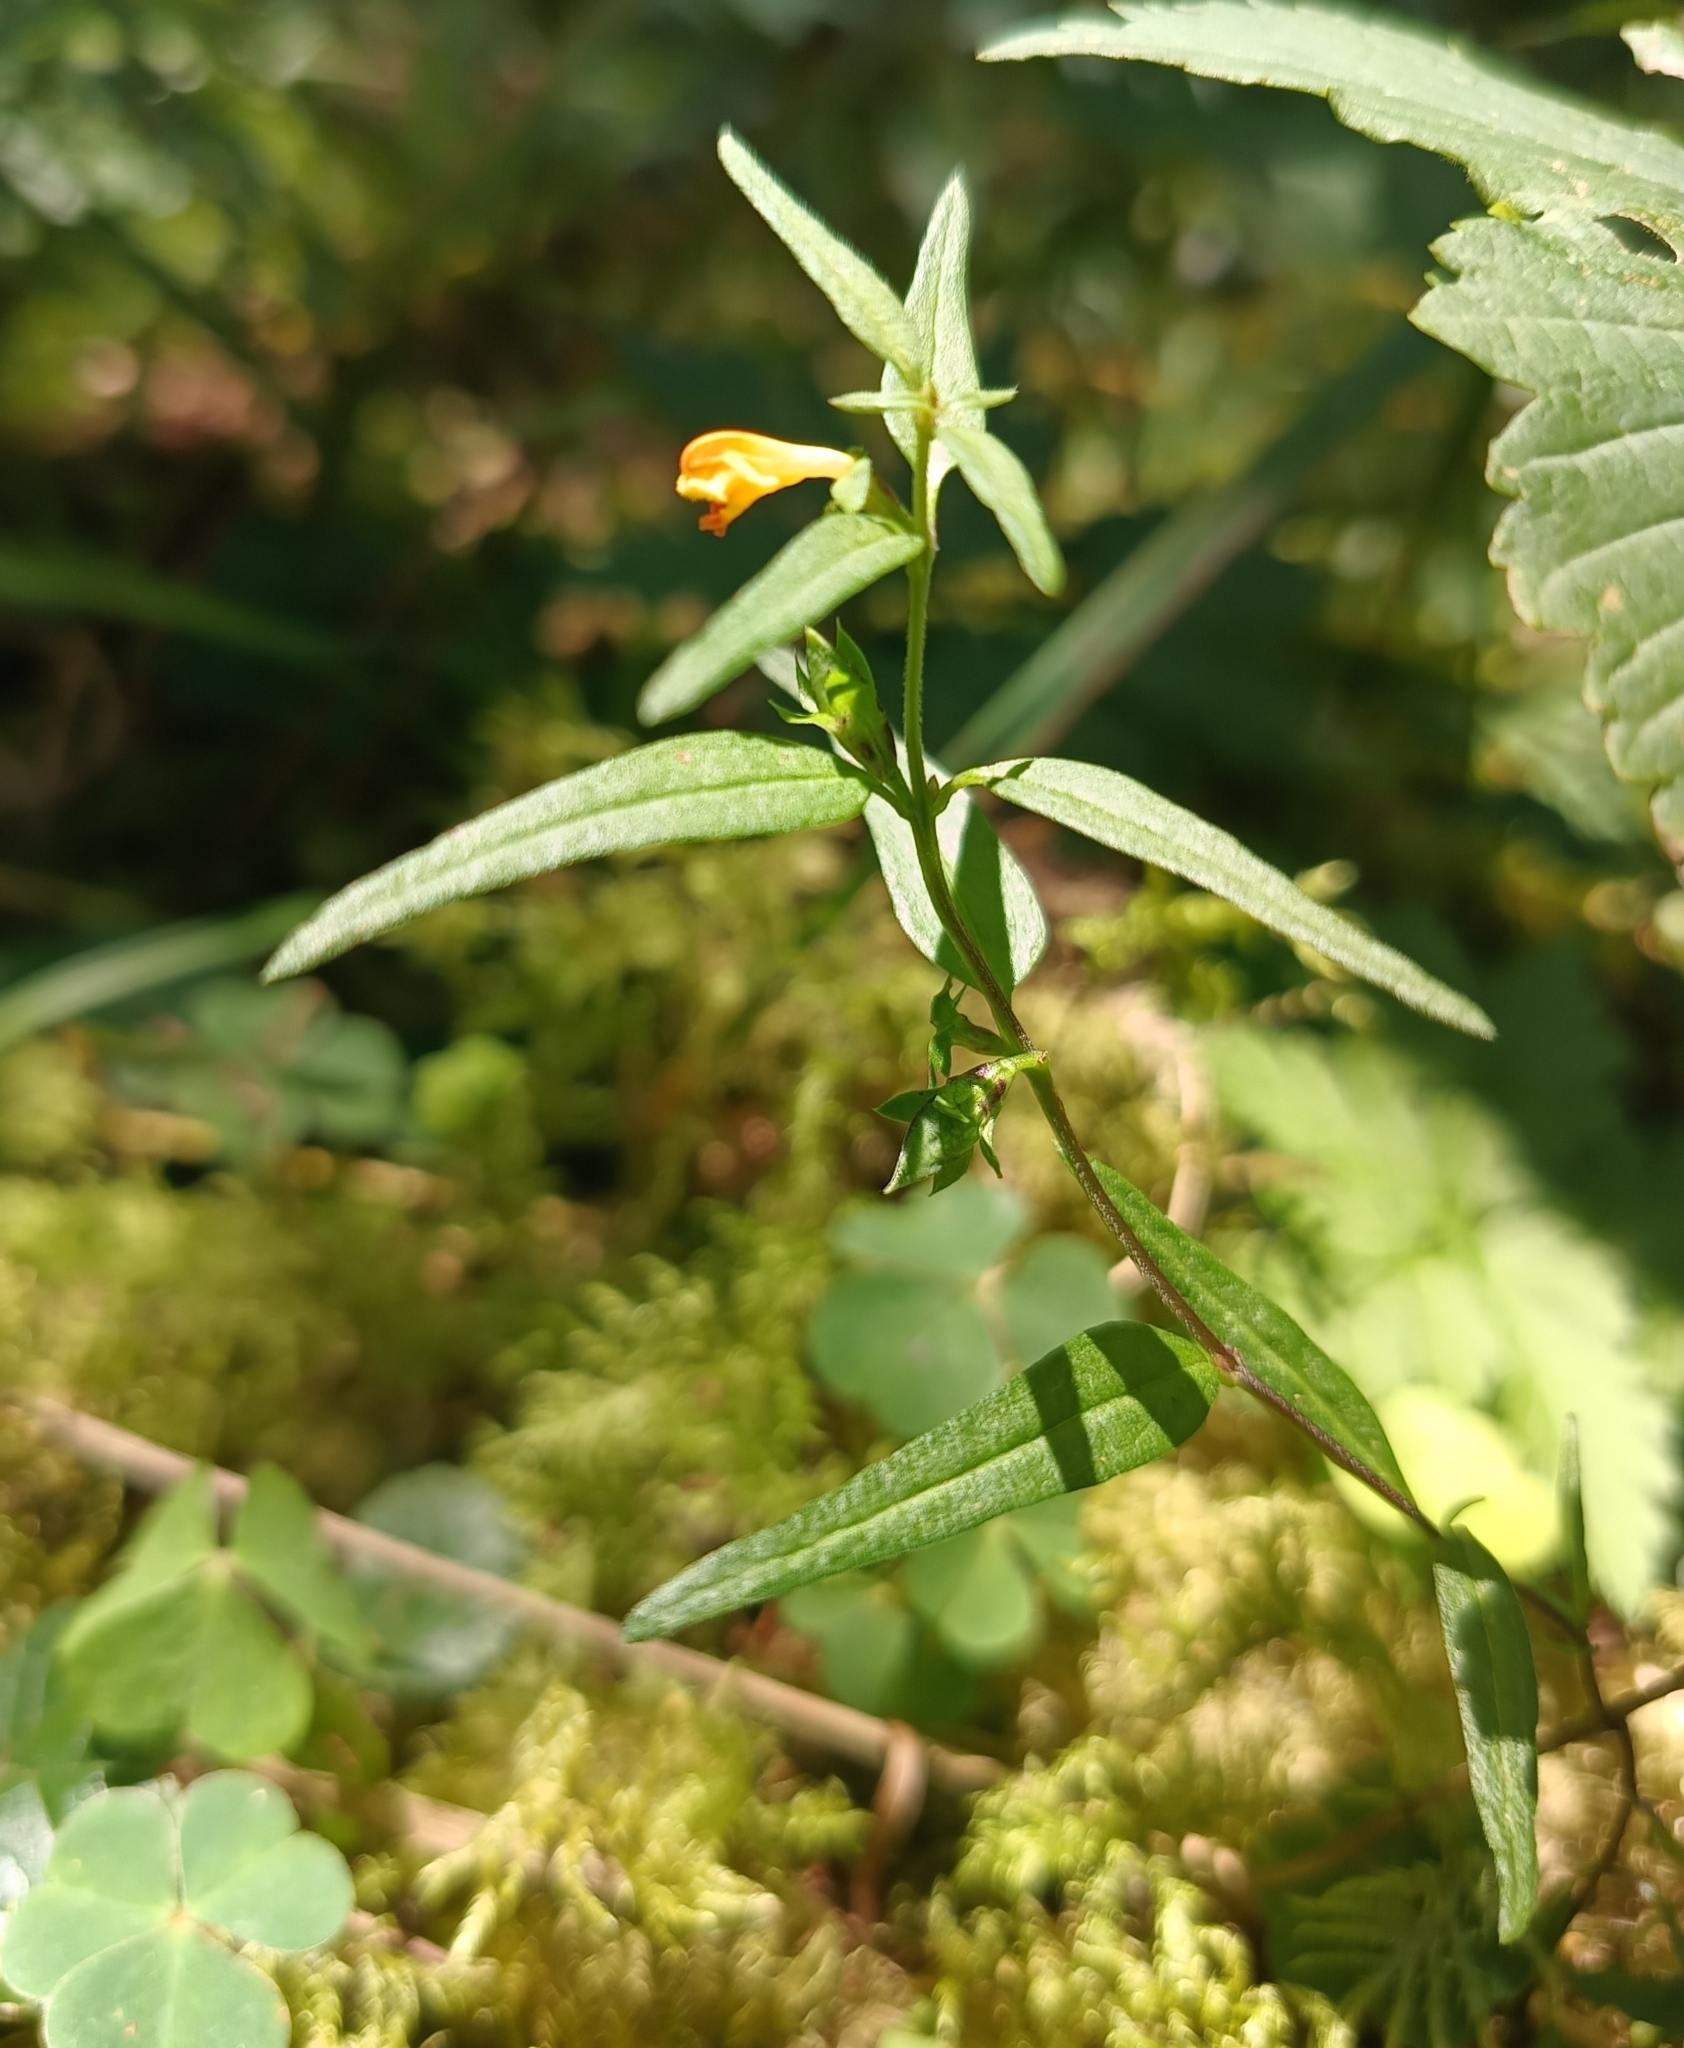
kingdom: Plantae
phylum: Tracheophyta
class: Magnoliopsida
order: Lamiales
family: Orobanchaceae
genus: Melampyrum
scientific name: Melampyrum sylvaticum
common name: Small cow-wheat
